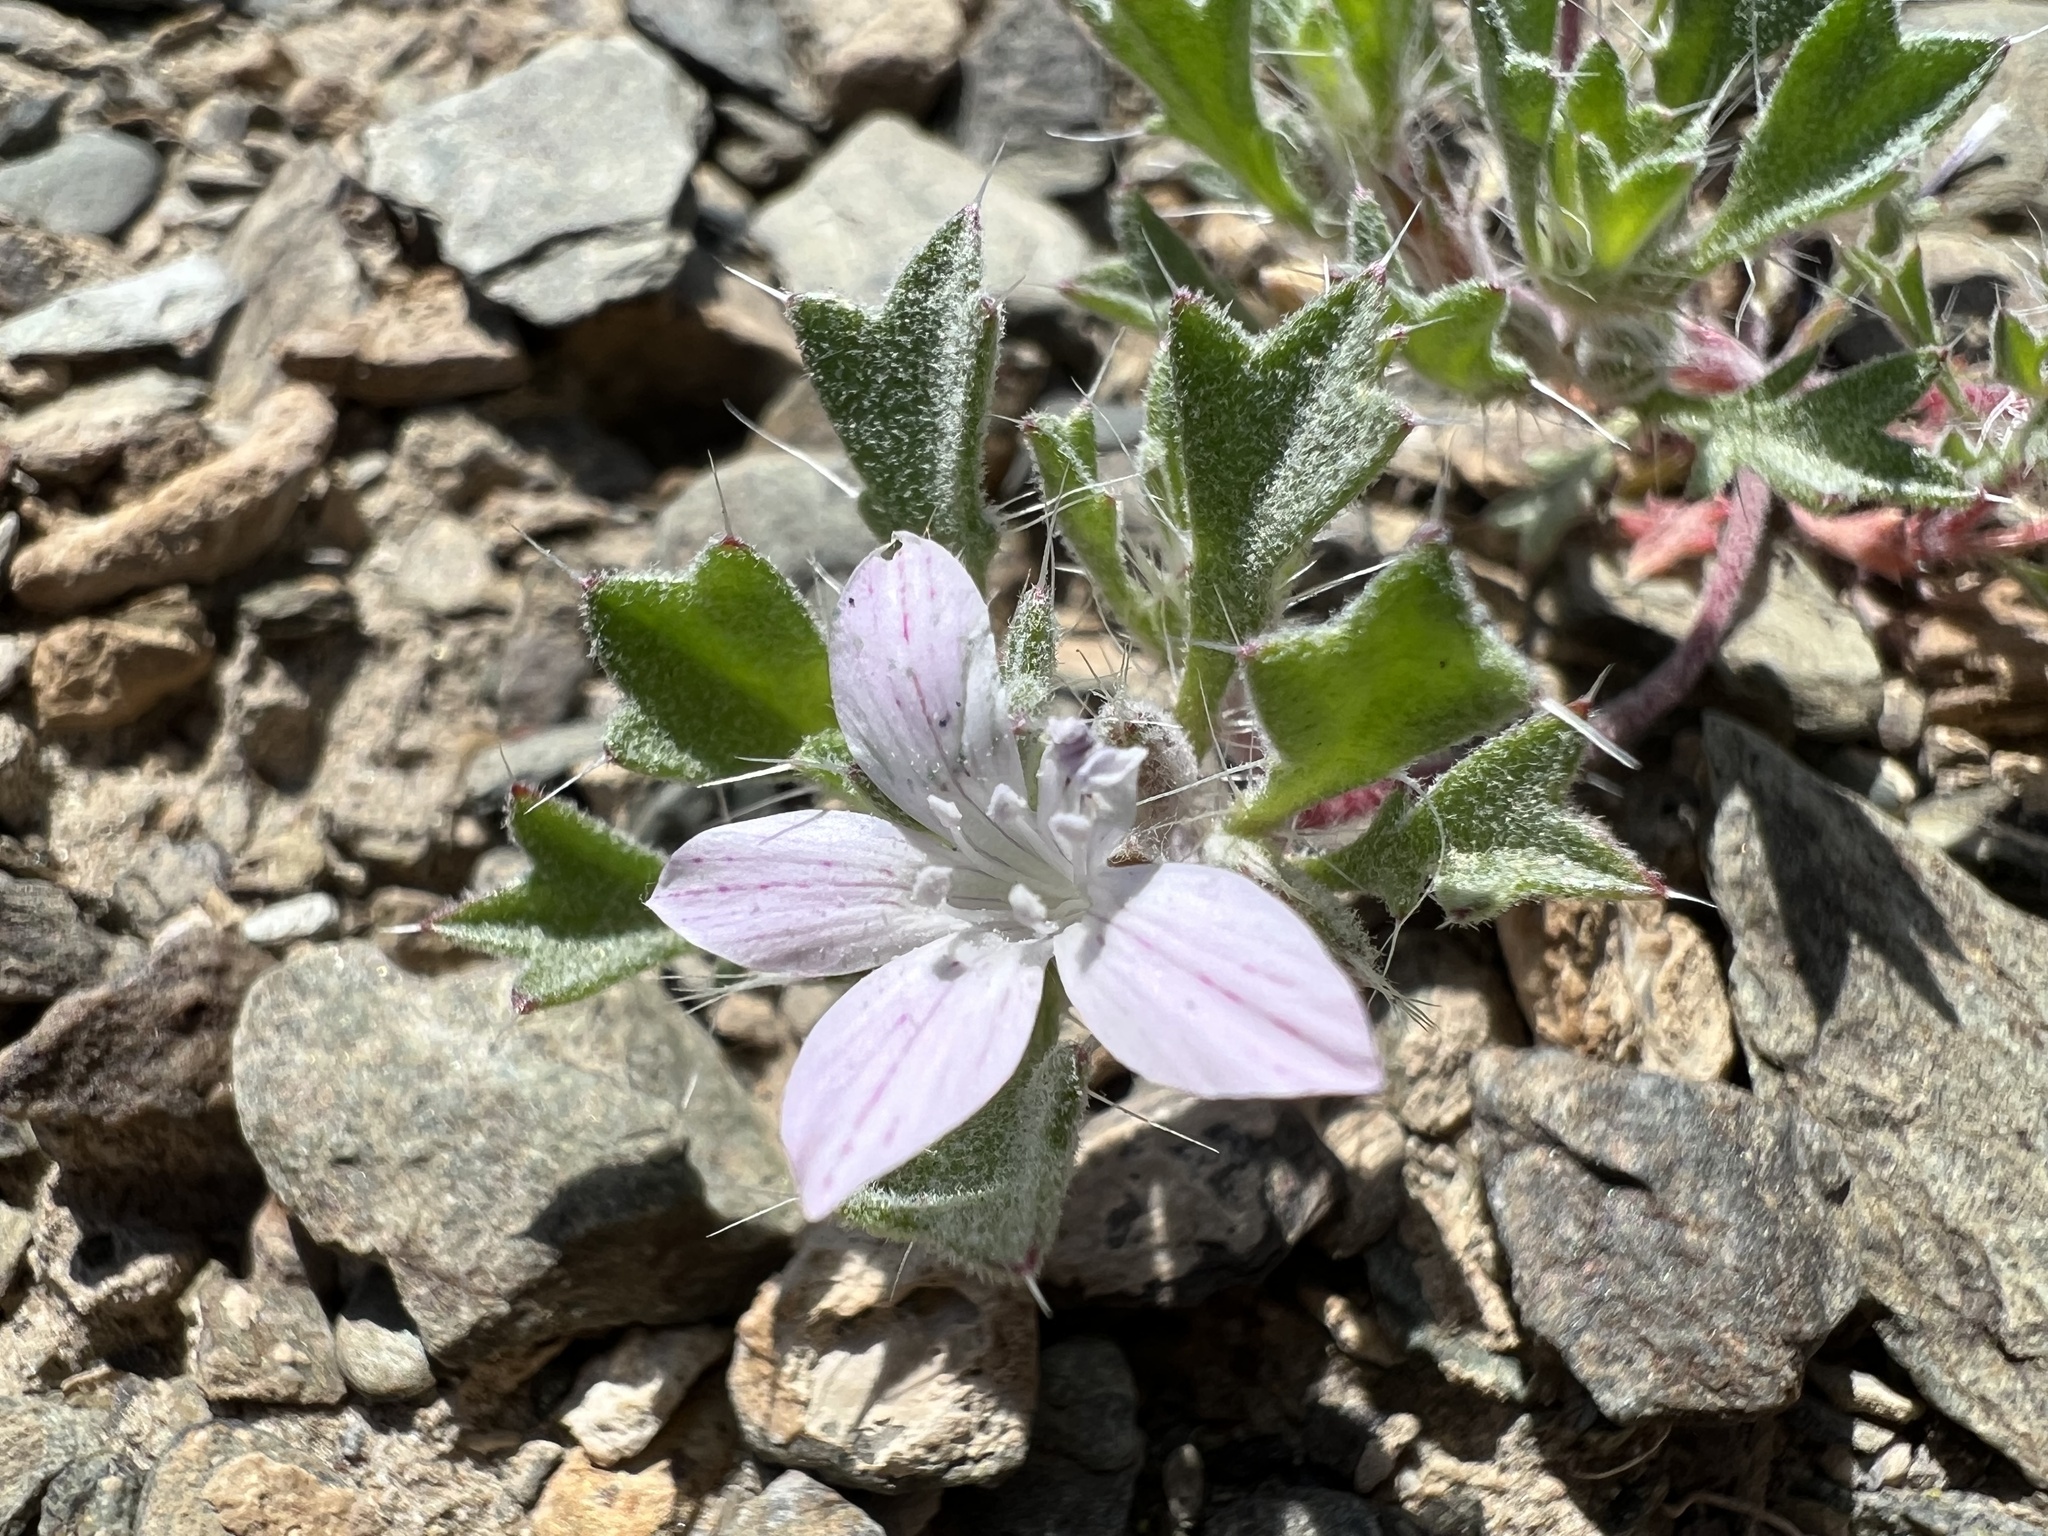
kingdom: Plantae
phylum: Tracheophyta
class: Magnoliopsida
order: Ericales
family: Polemoniaceae
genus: Langloisia
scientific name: Langloisia setosissima
